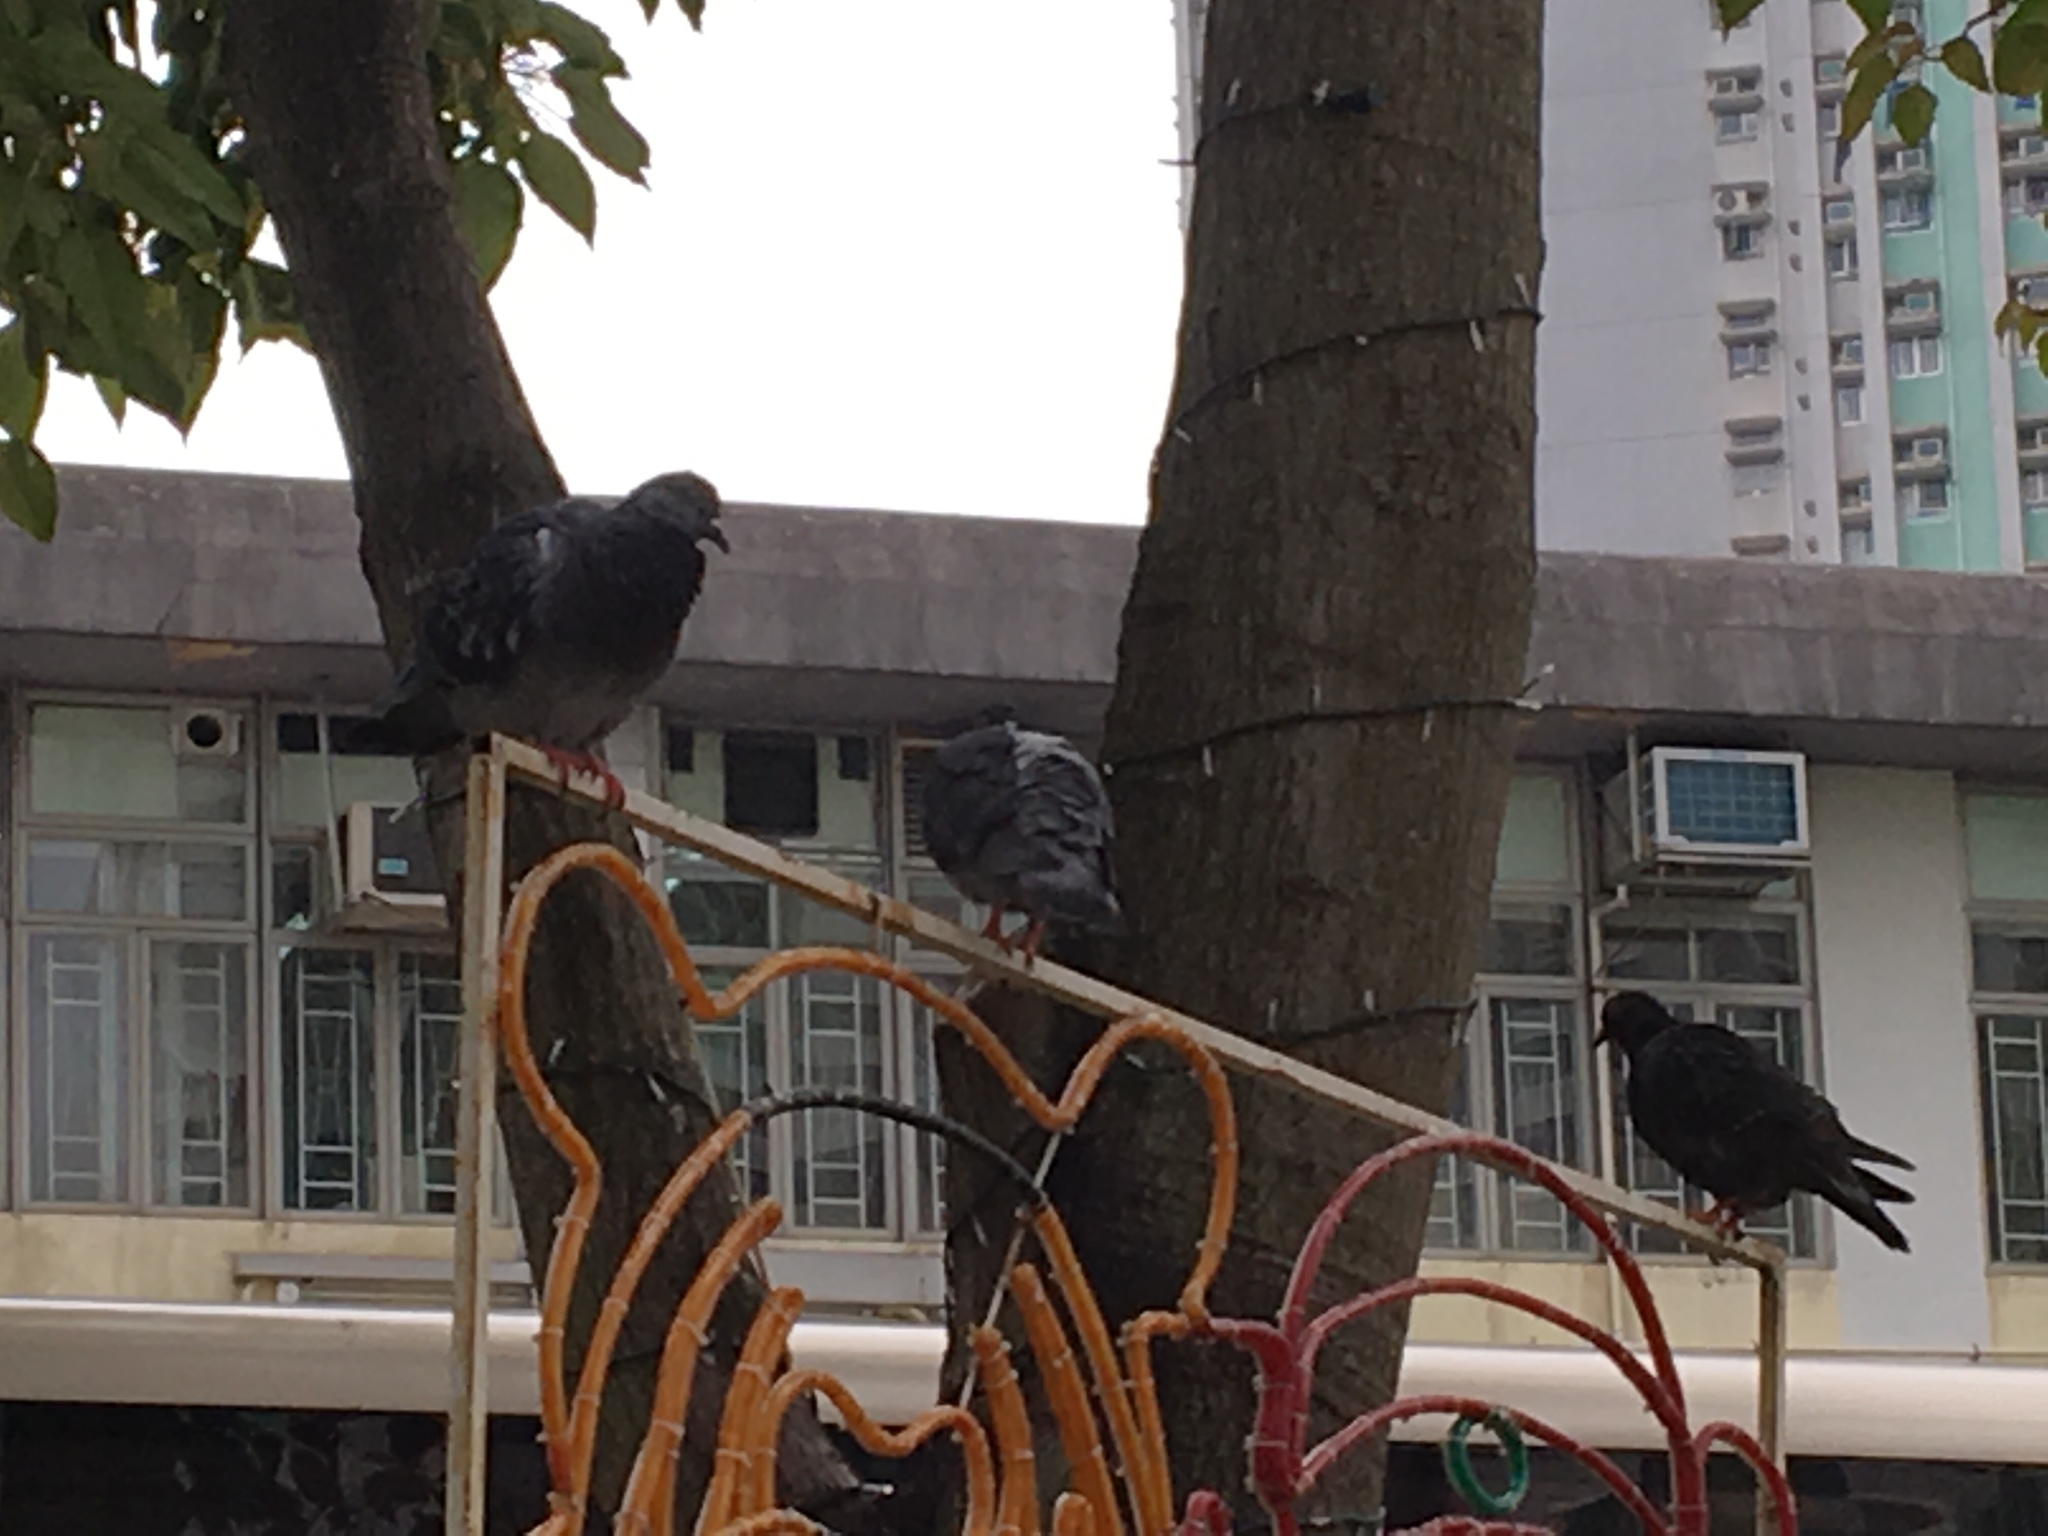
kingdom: Animalia
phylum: Chordata
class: Aves
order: Columbiformes
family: Columbidae
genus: Columba
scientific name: Columba livia
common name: Rock pigeon
